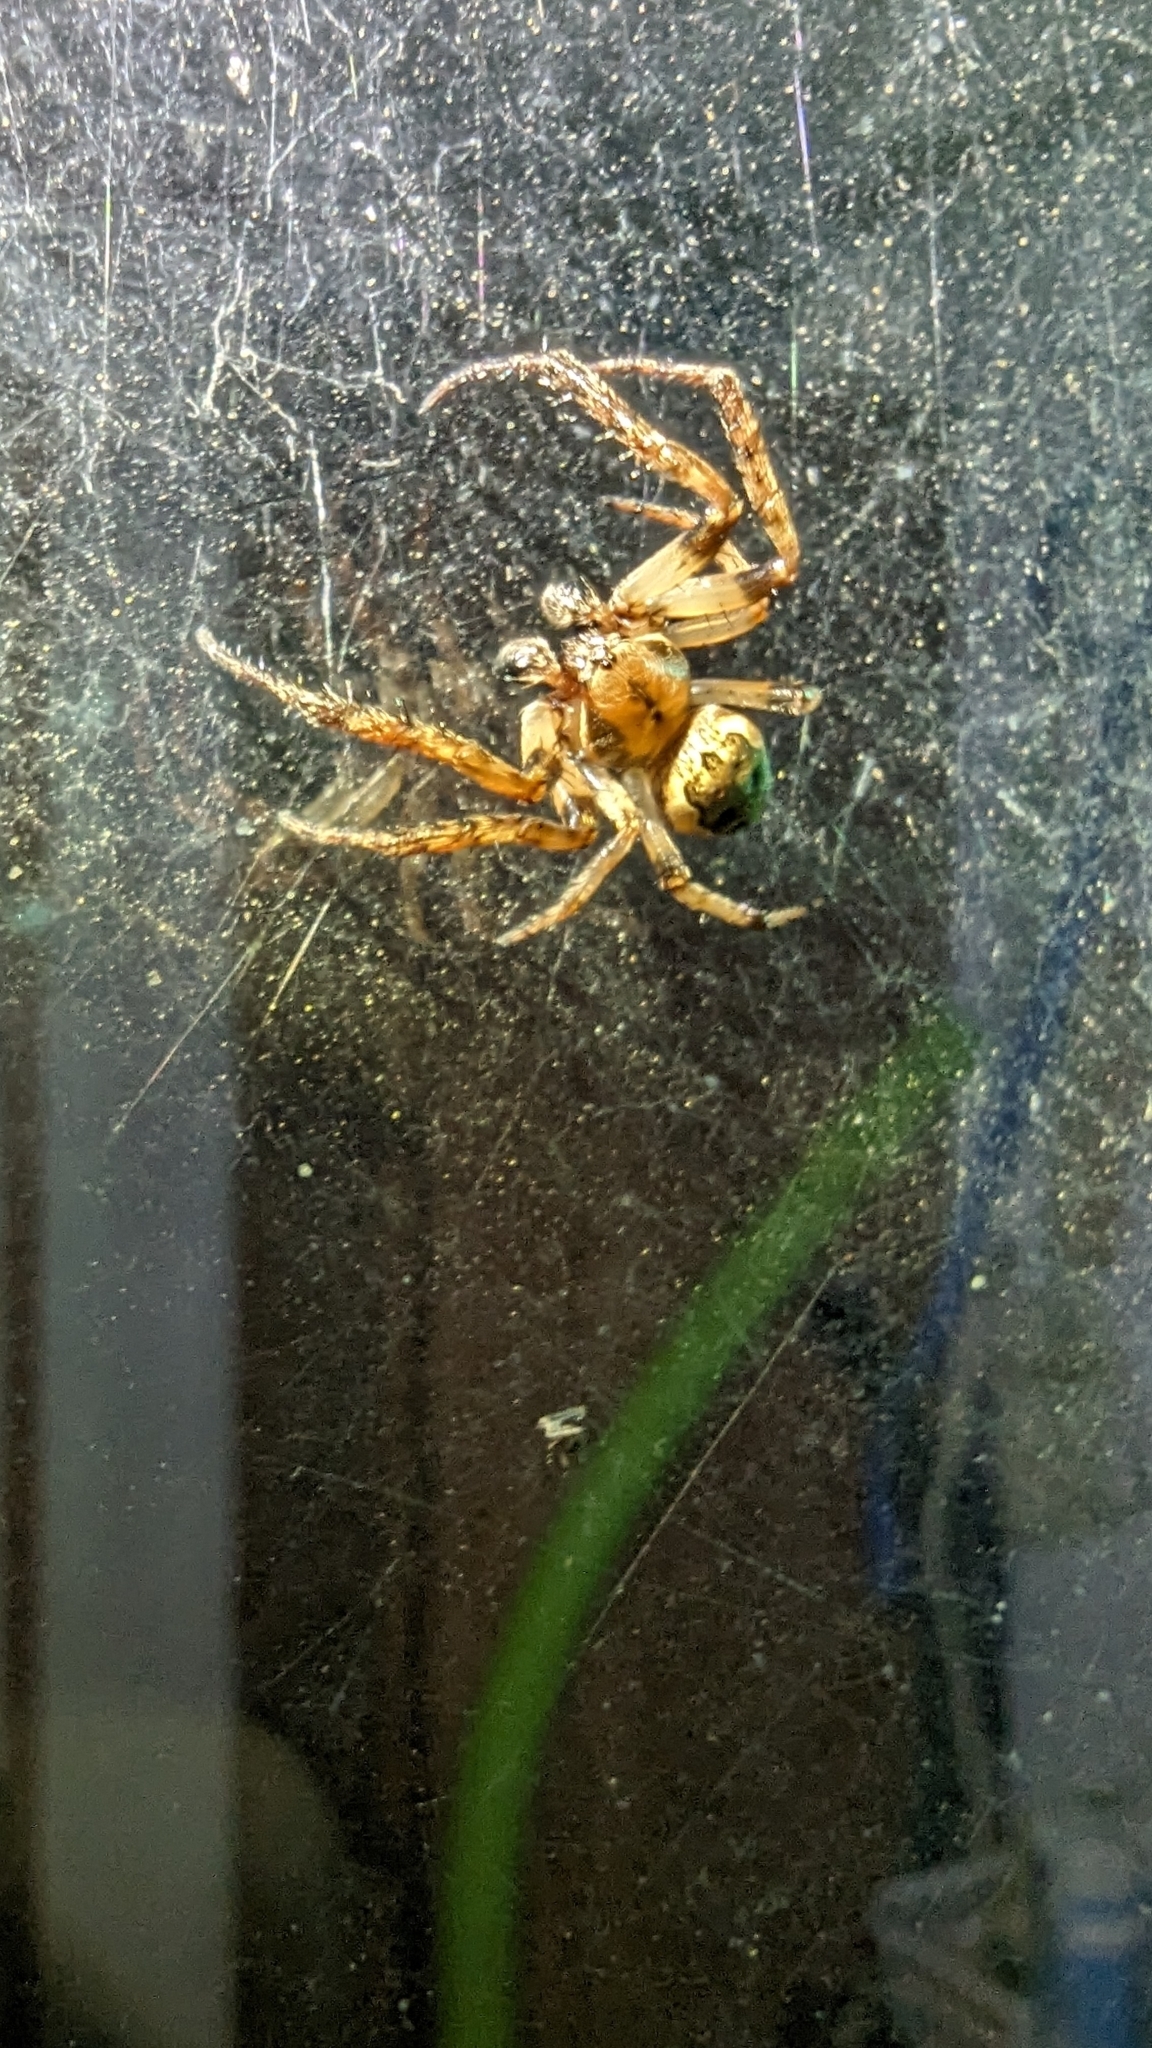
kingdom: Animalia
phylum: Arthropoda
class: Arachnida
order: Araneae
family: Araneidae
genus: Larinioides
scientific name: Larinioides cornutus
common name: Furrow orbweaver
